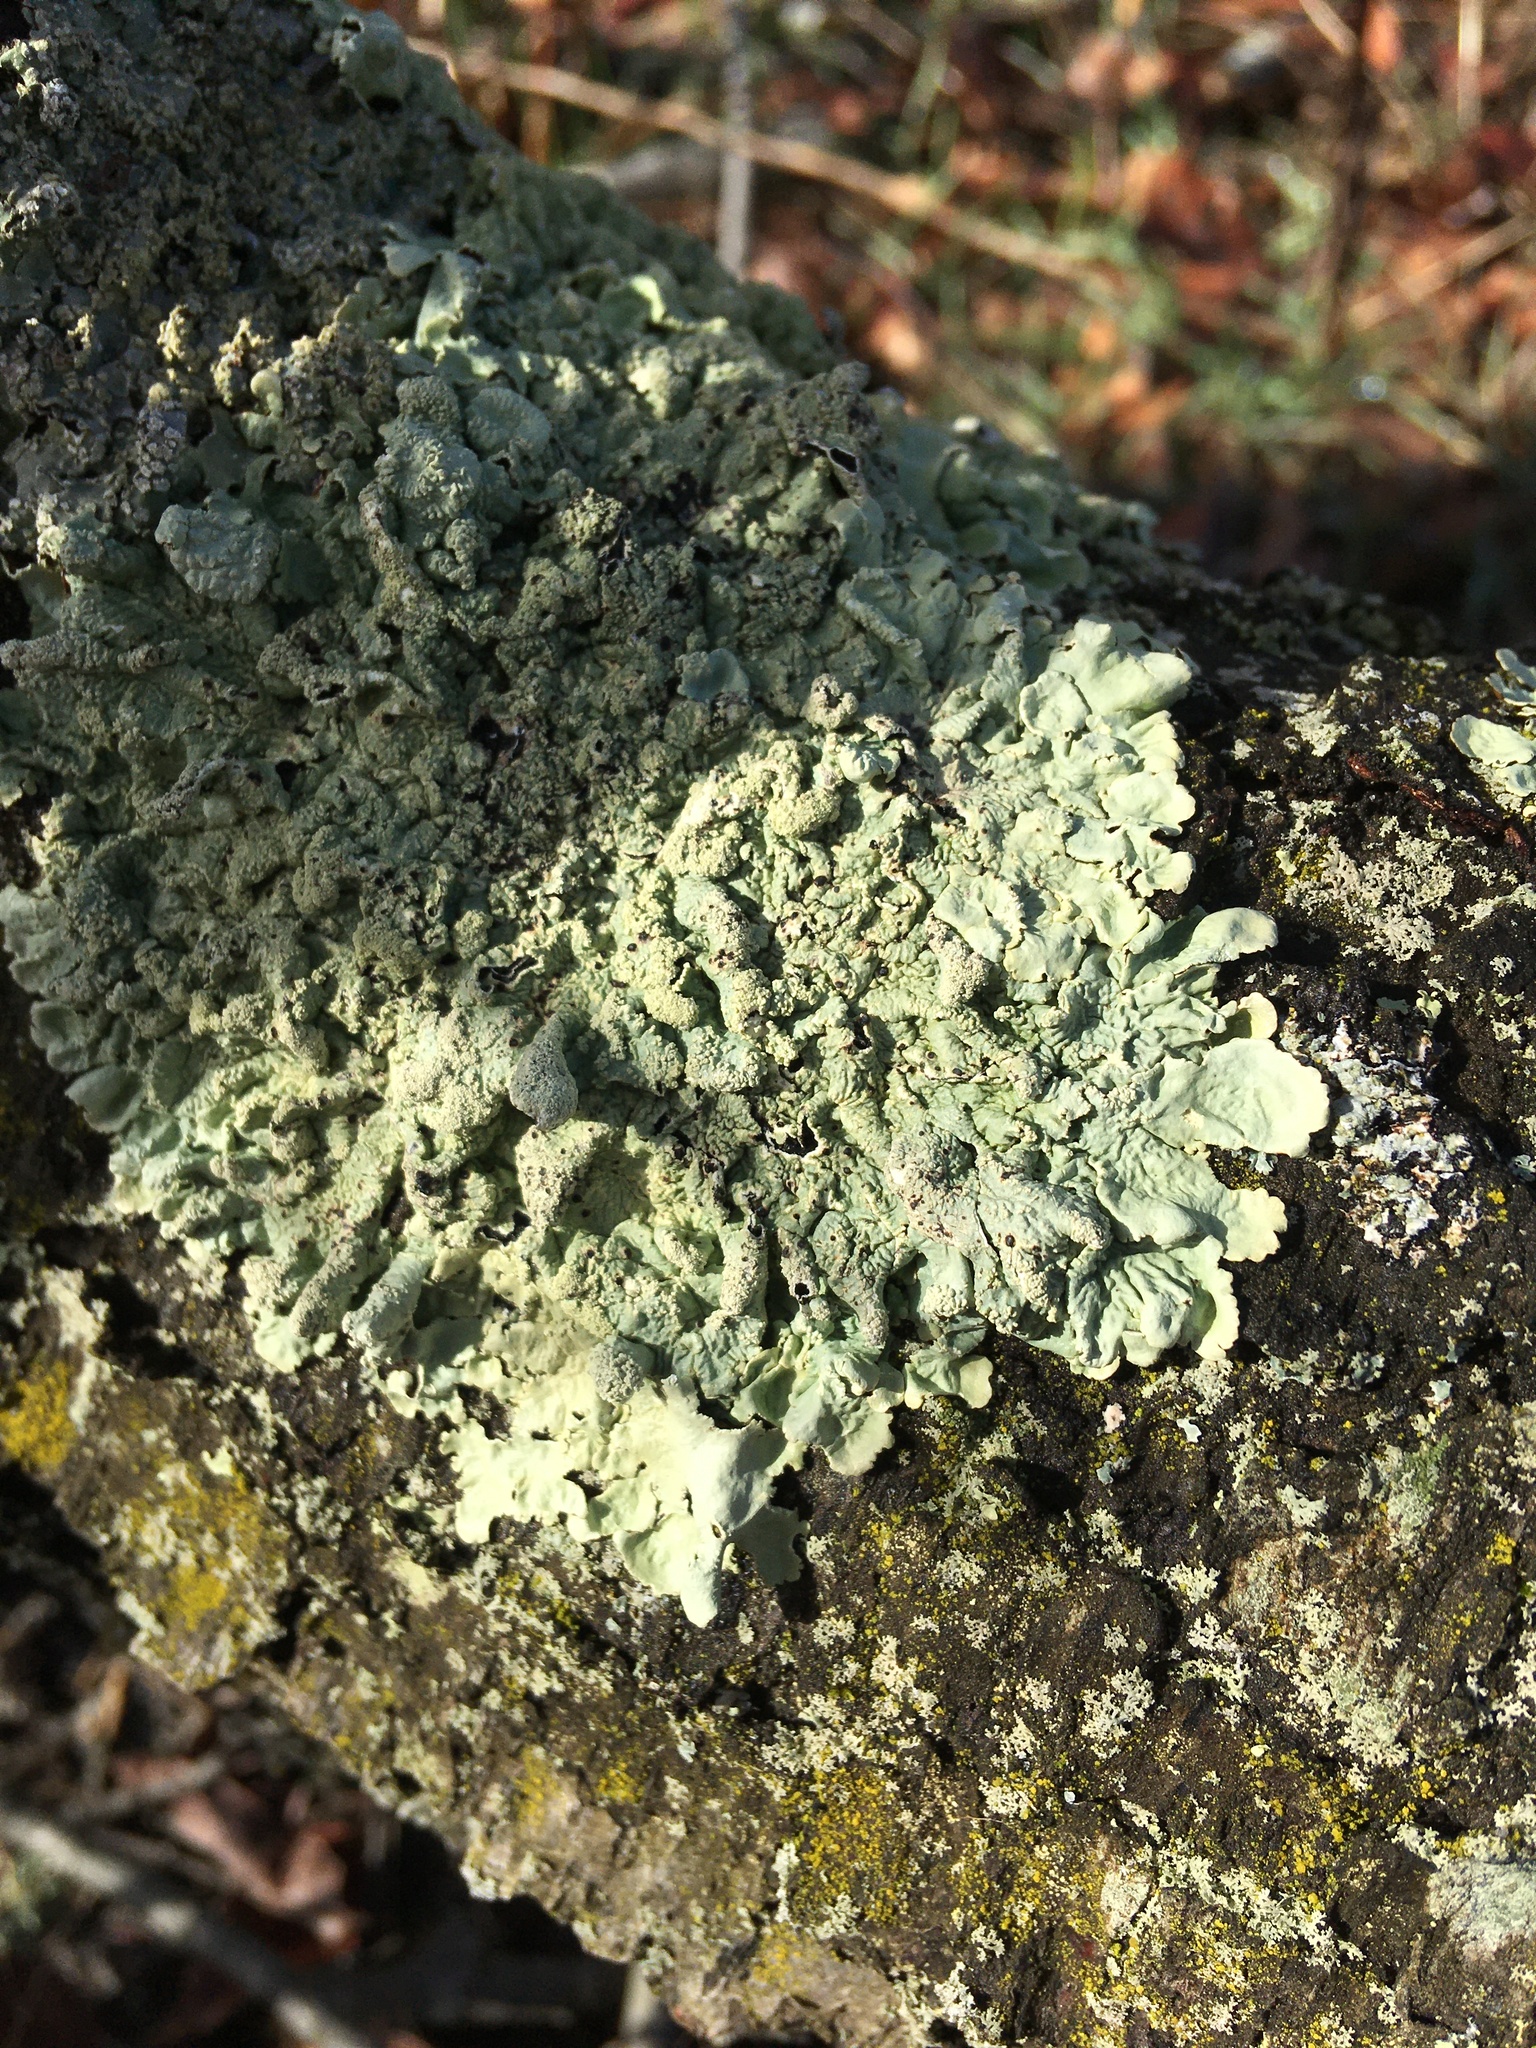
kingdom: Fungi
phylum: Ascomycota
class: Lecanoromycetes
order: Lecanorales
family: Parmeliaceae
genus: Flavoparmelia
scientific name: Flavoparmelia caperata
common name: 40-mile per hour lichen
